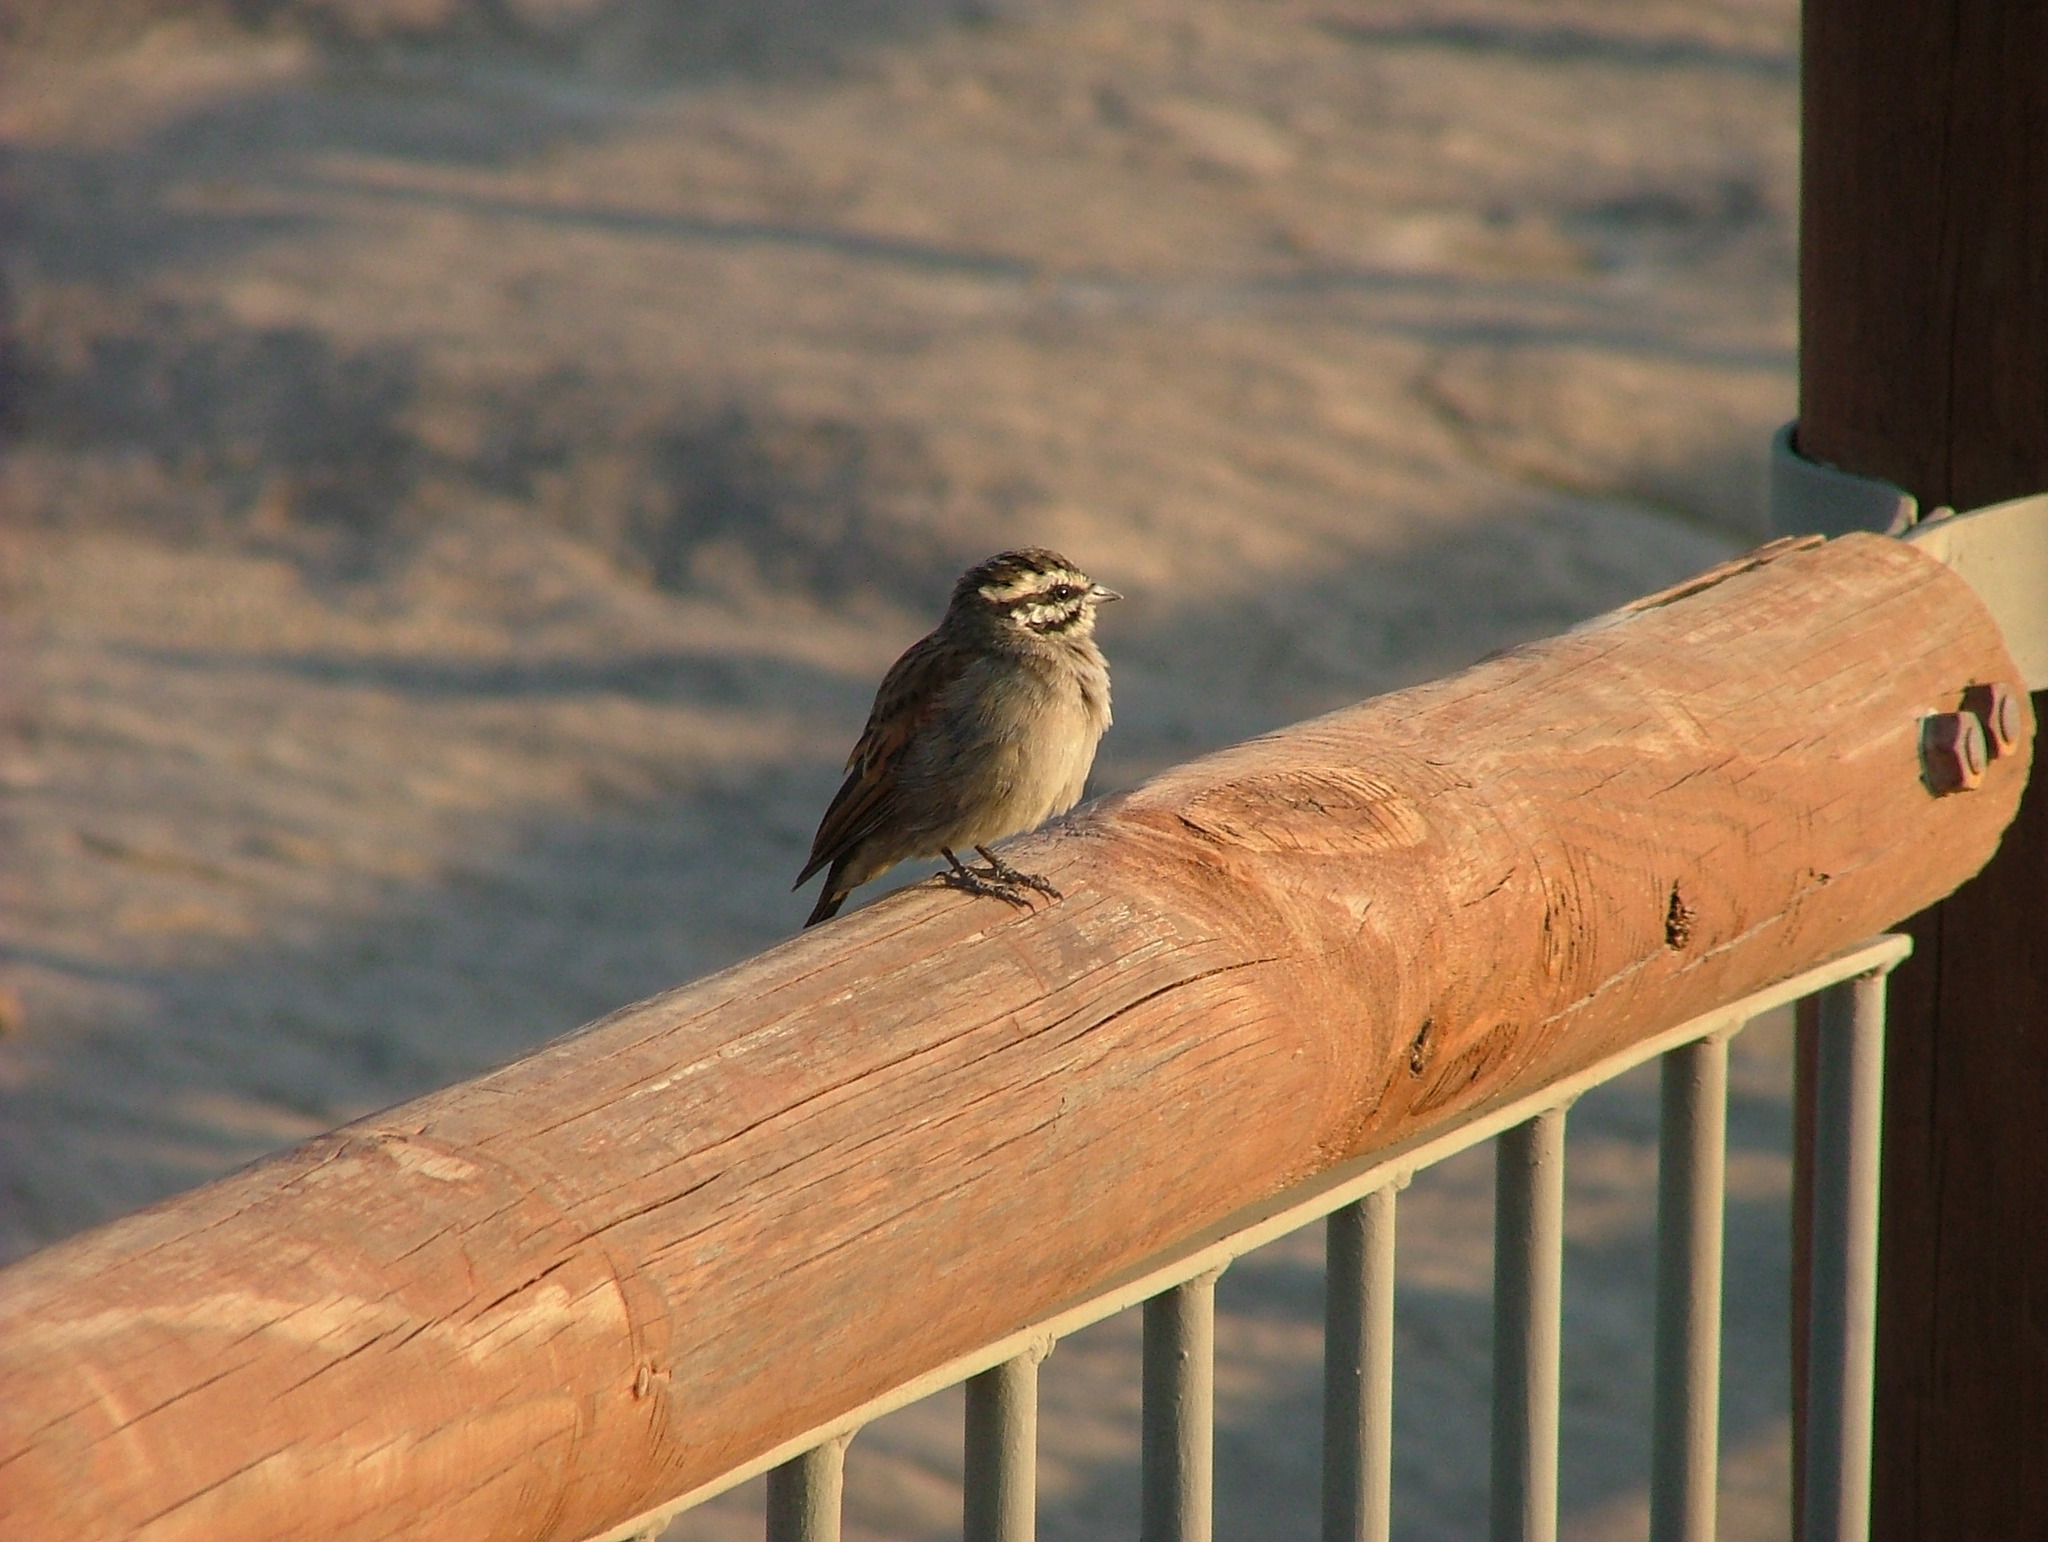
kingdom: Animalia
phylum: Chordata
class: Aves
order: Passeriformes
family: Emberizidae
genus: Emberiza
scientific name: Emberiza capensis
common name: Cape bunting
